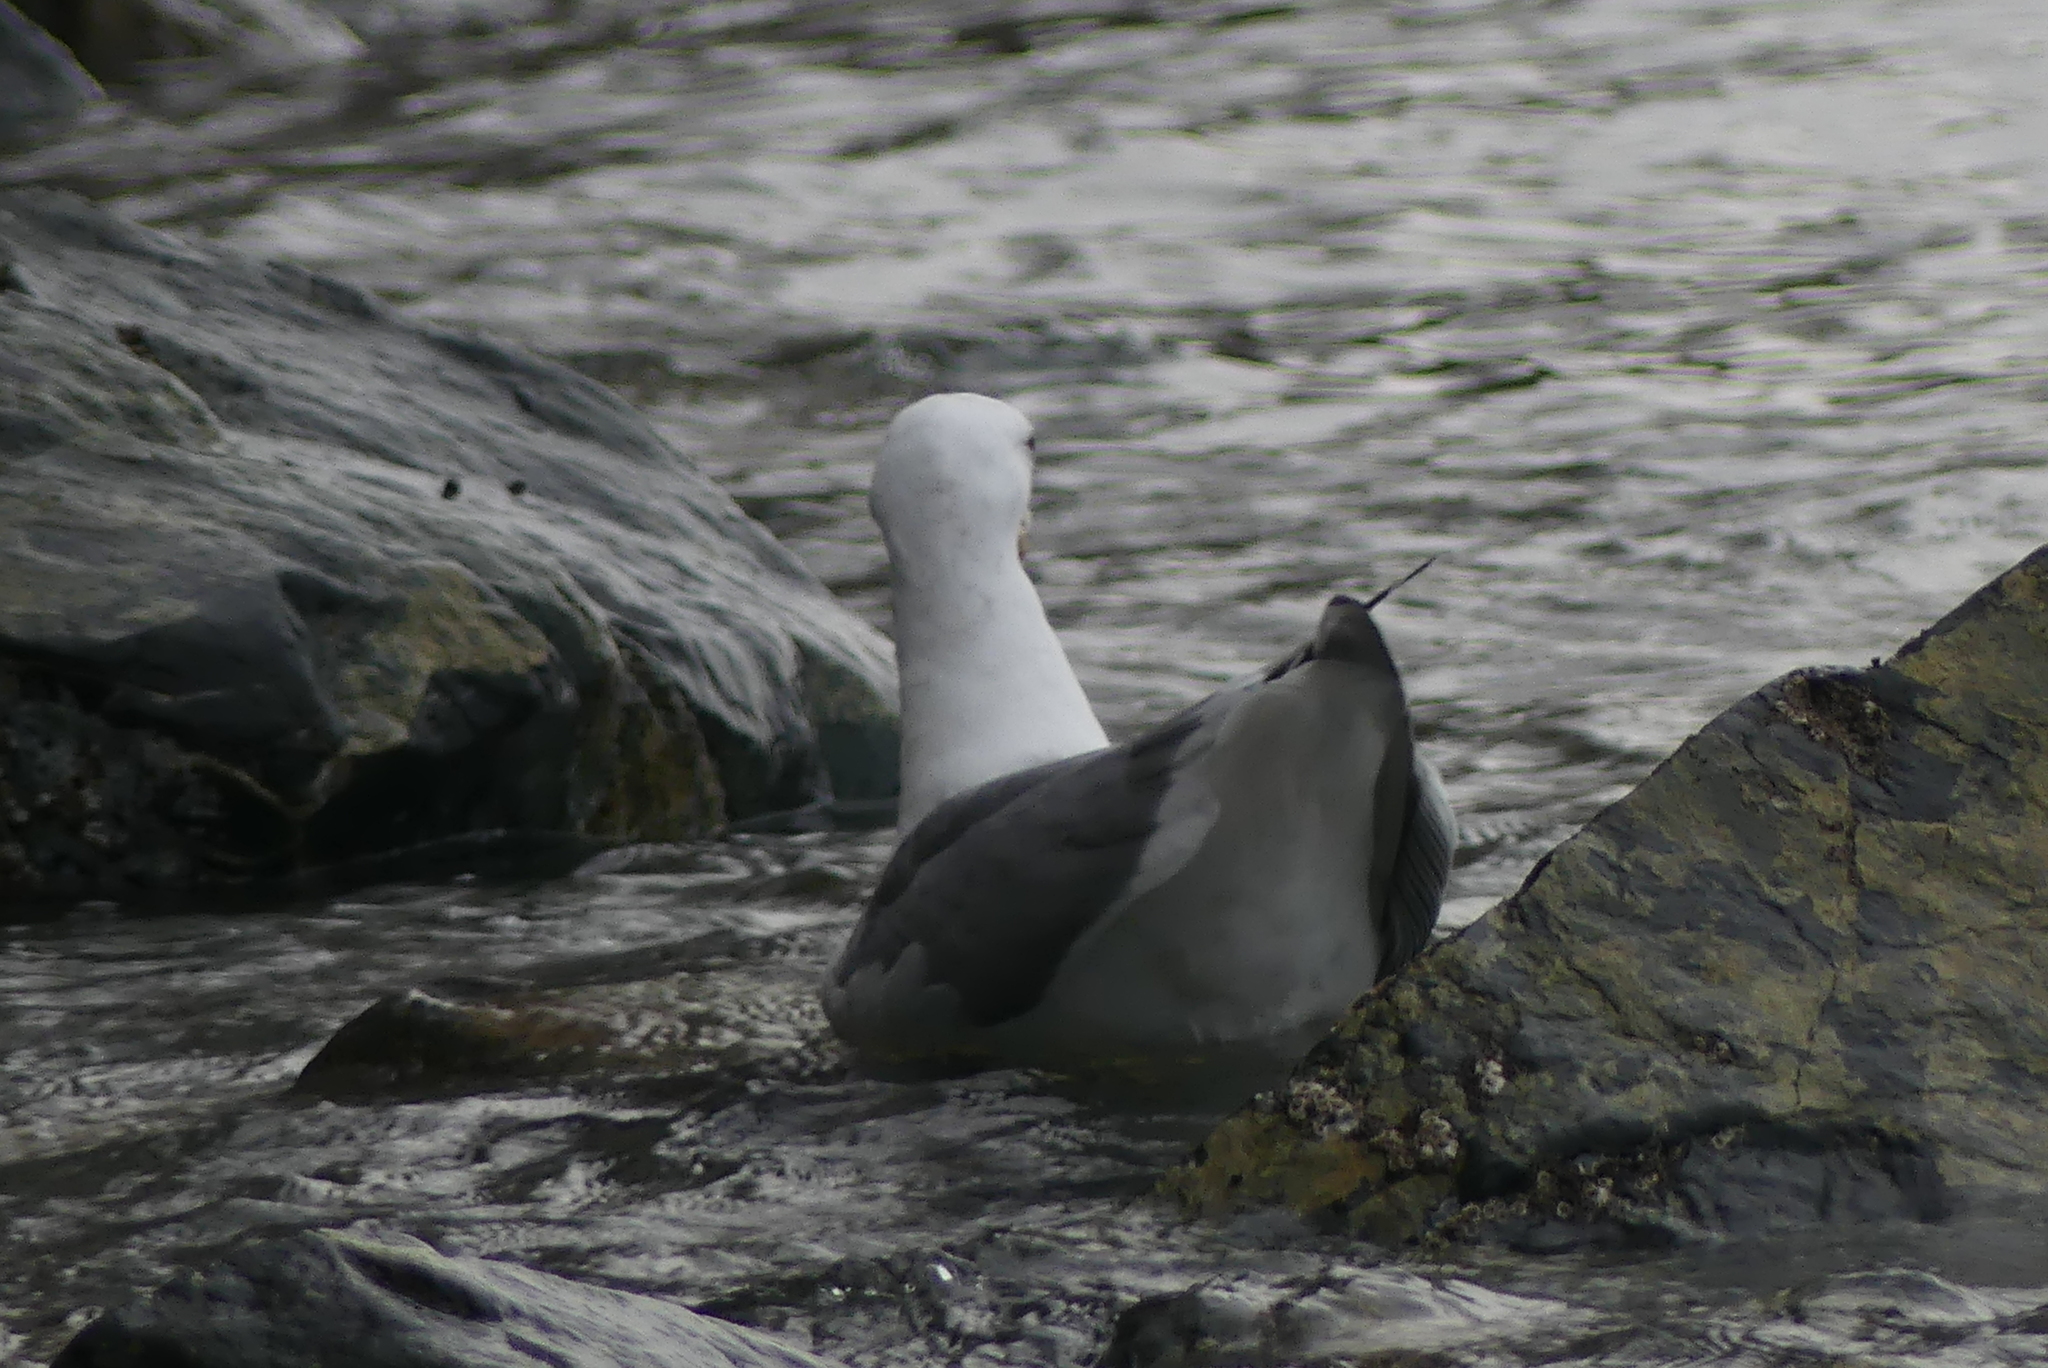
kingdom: Animalia
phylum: Chordata
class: Aves
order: Charadriiformes
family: Laridae
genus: Larus
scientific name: Larus
